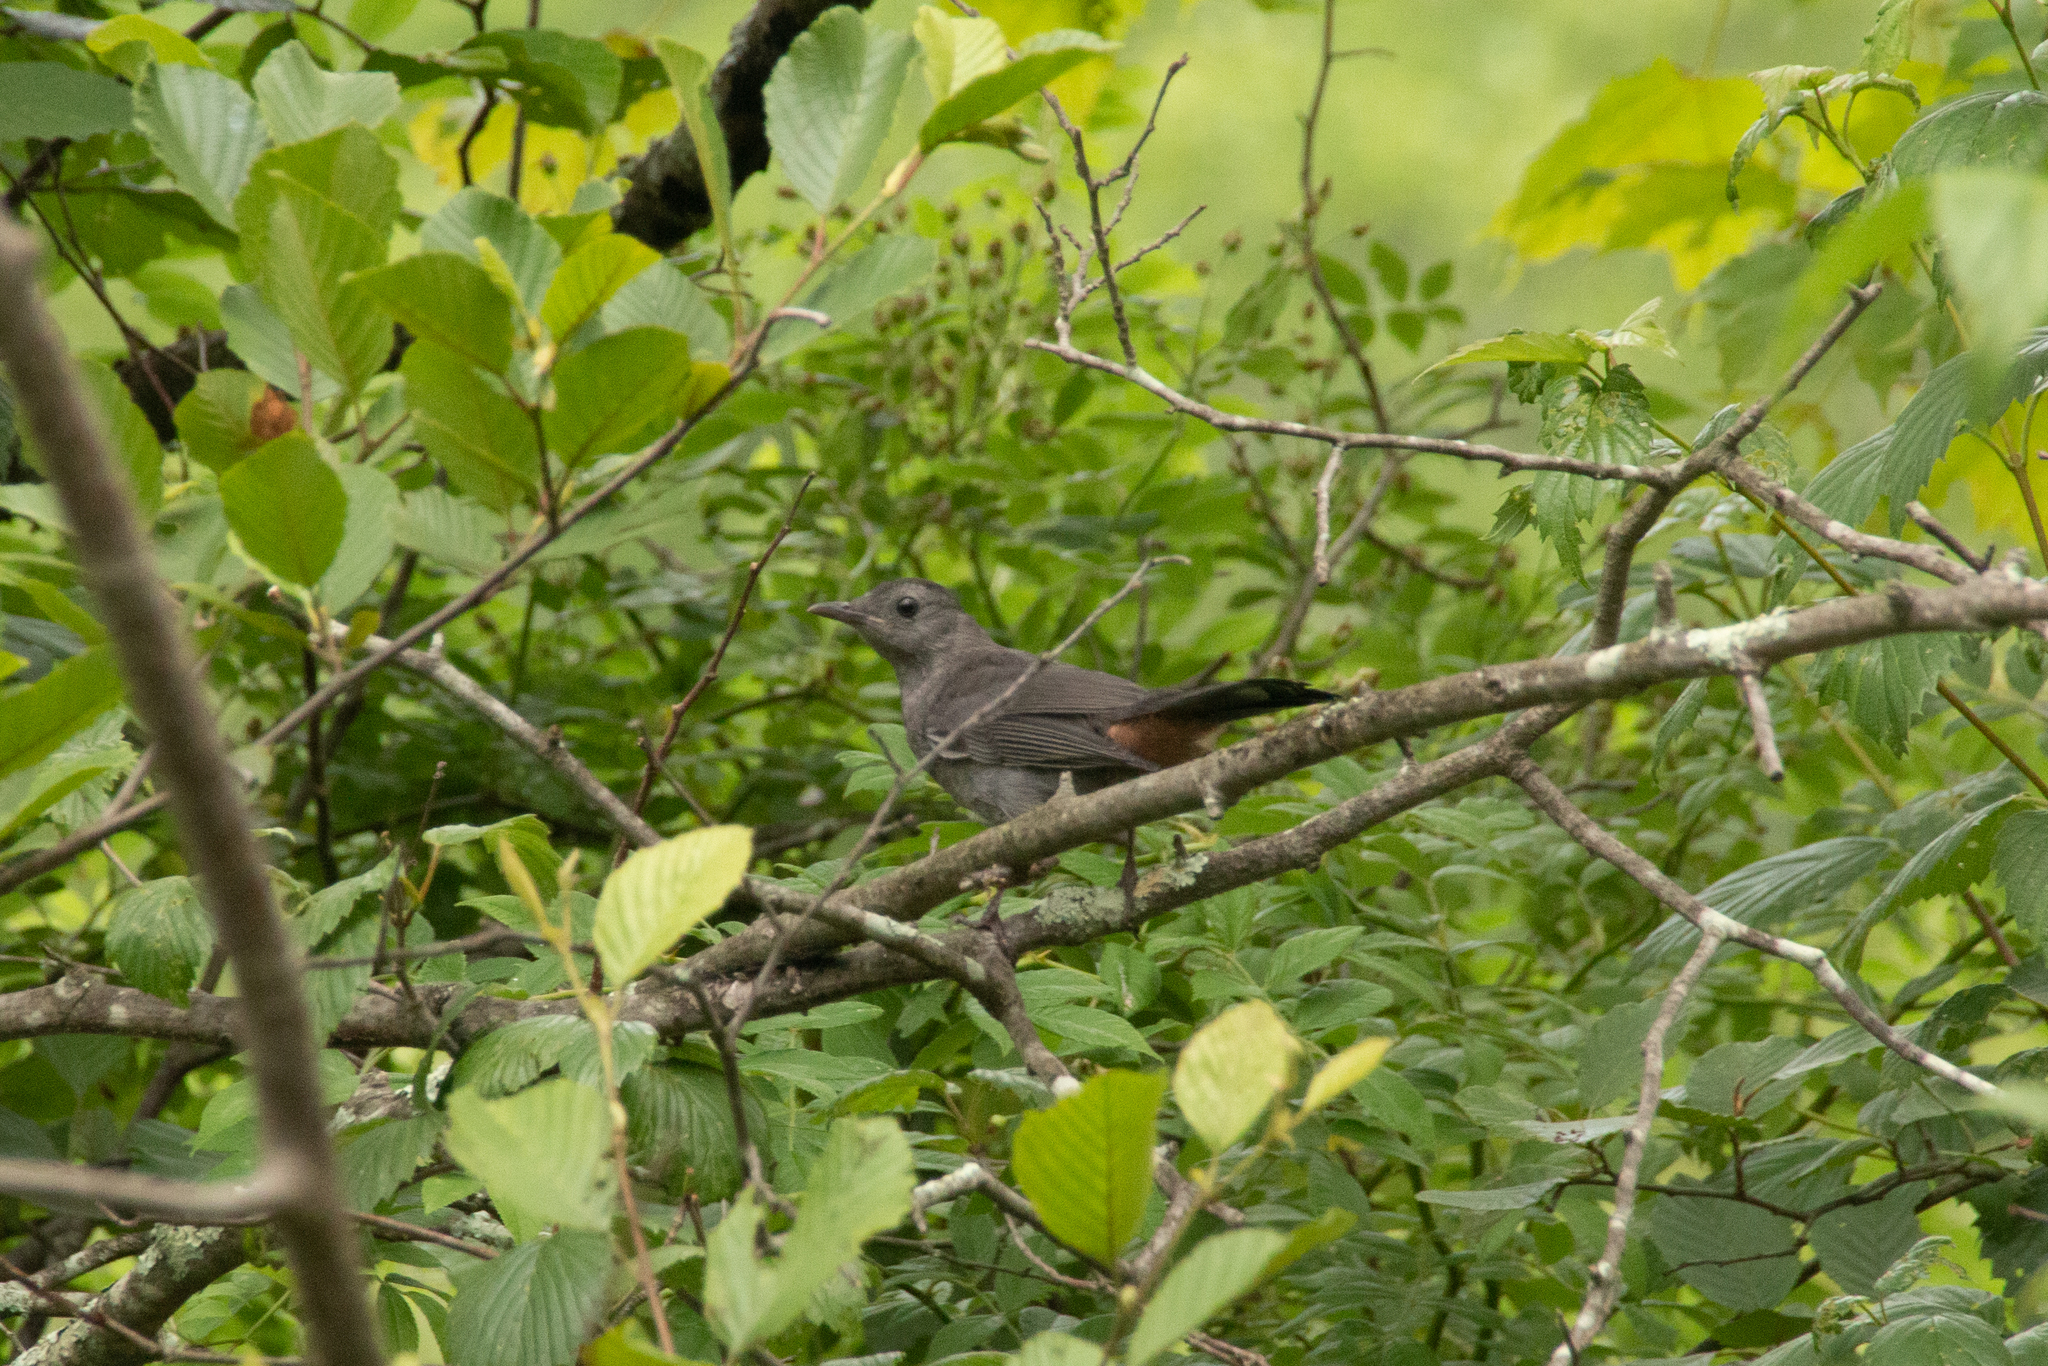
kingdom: Animalia
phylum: Chordata
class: Aves
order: Passeriformes
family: Mimidae
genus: Dumetella
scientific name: Dumetella carolinensis
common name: Gray catbird
